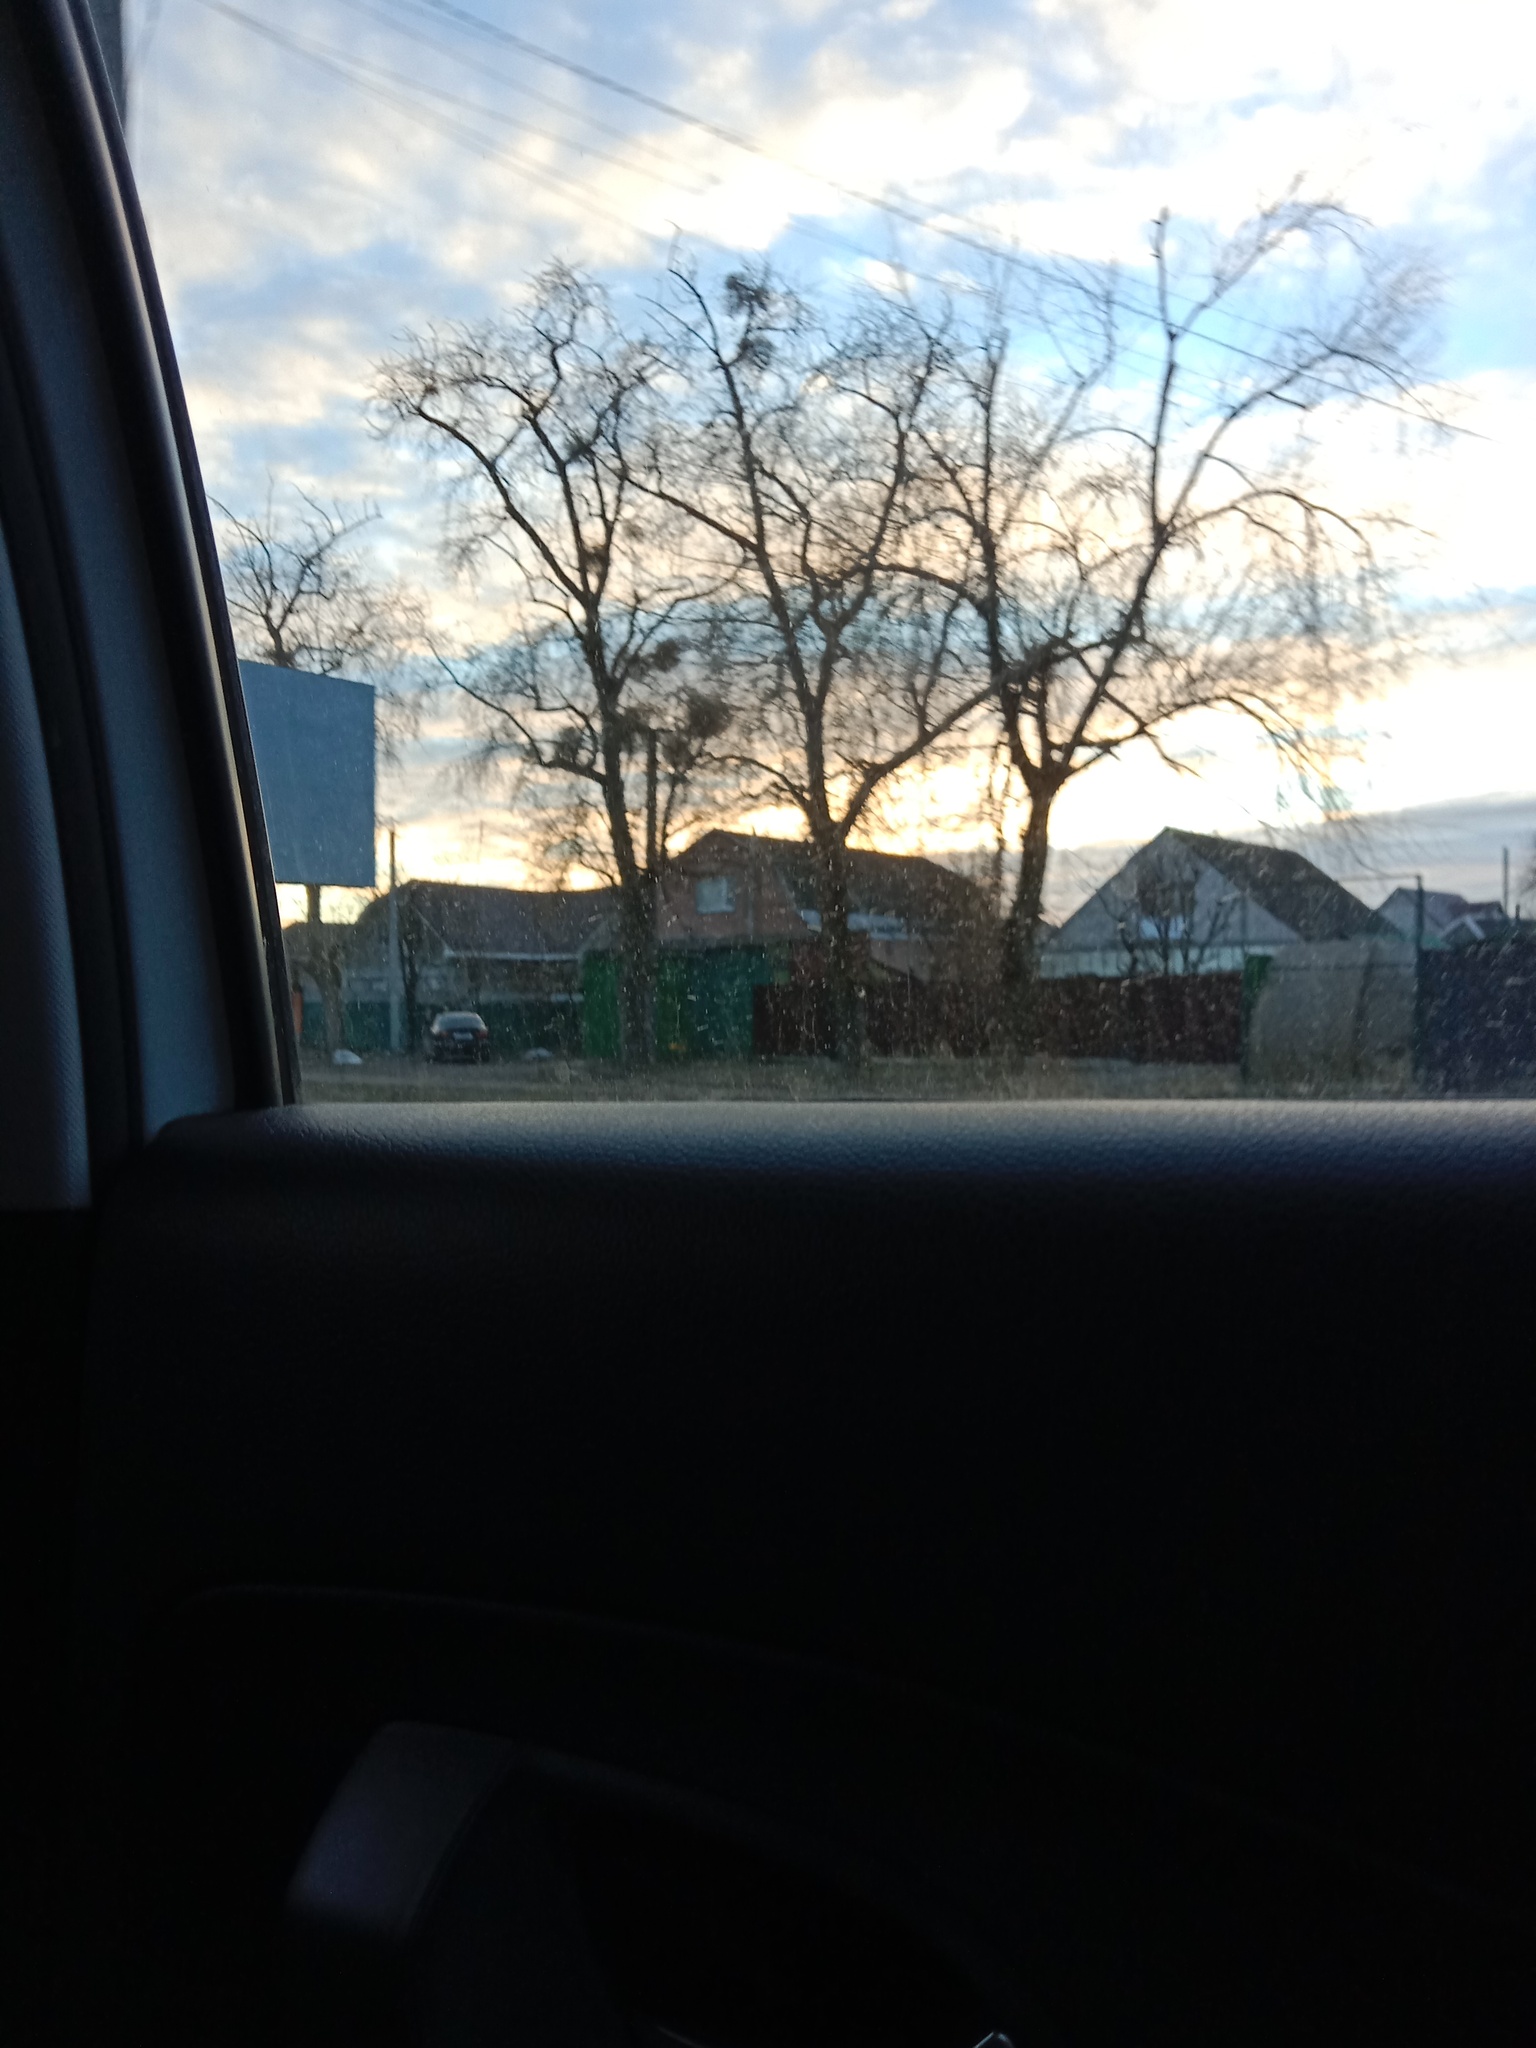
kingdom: Plantae
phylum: Tracheophyta
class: Magnoliopsida
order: Santalales
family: Viscaceae
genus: Viscum
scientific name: Viscum album
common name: Mistletoe
